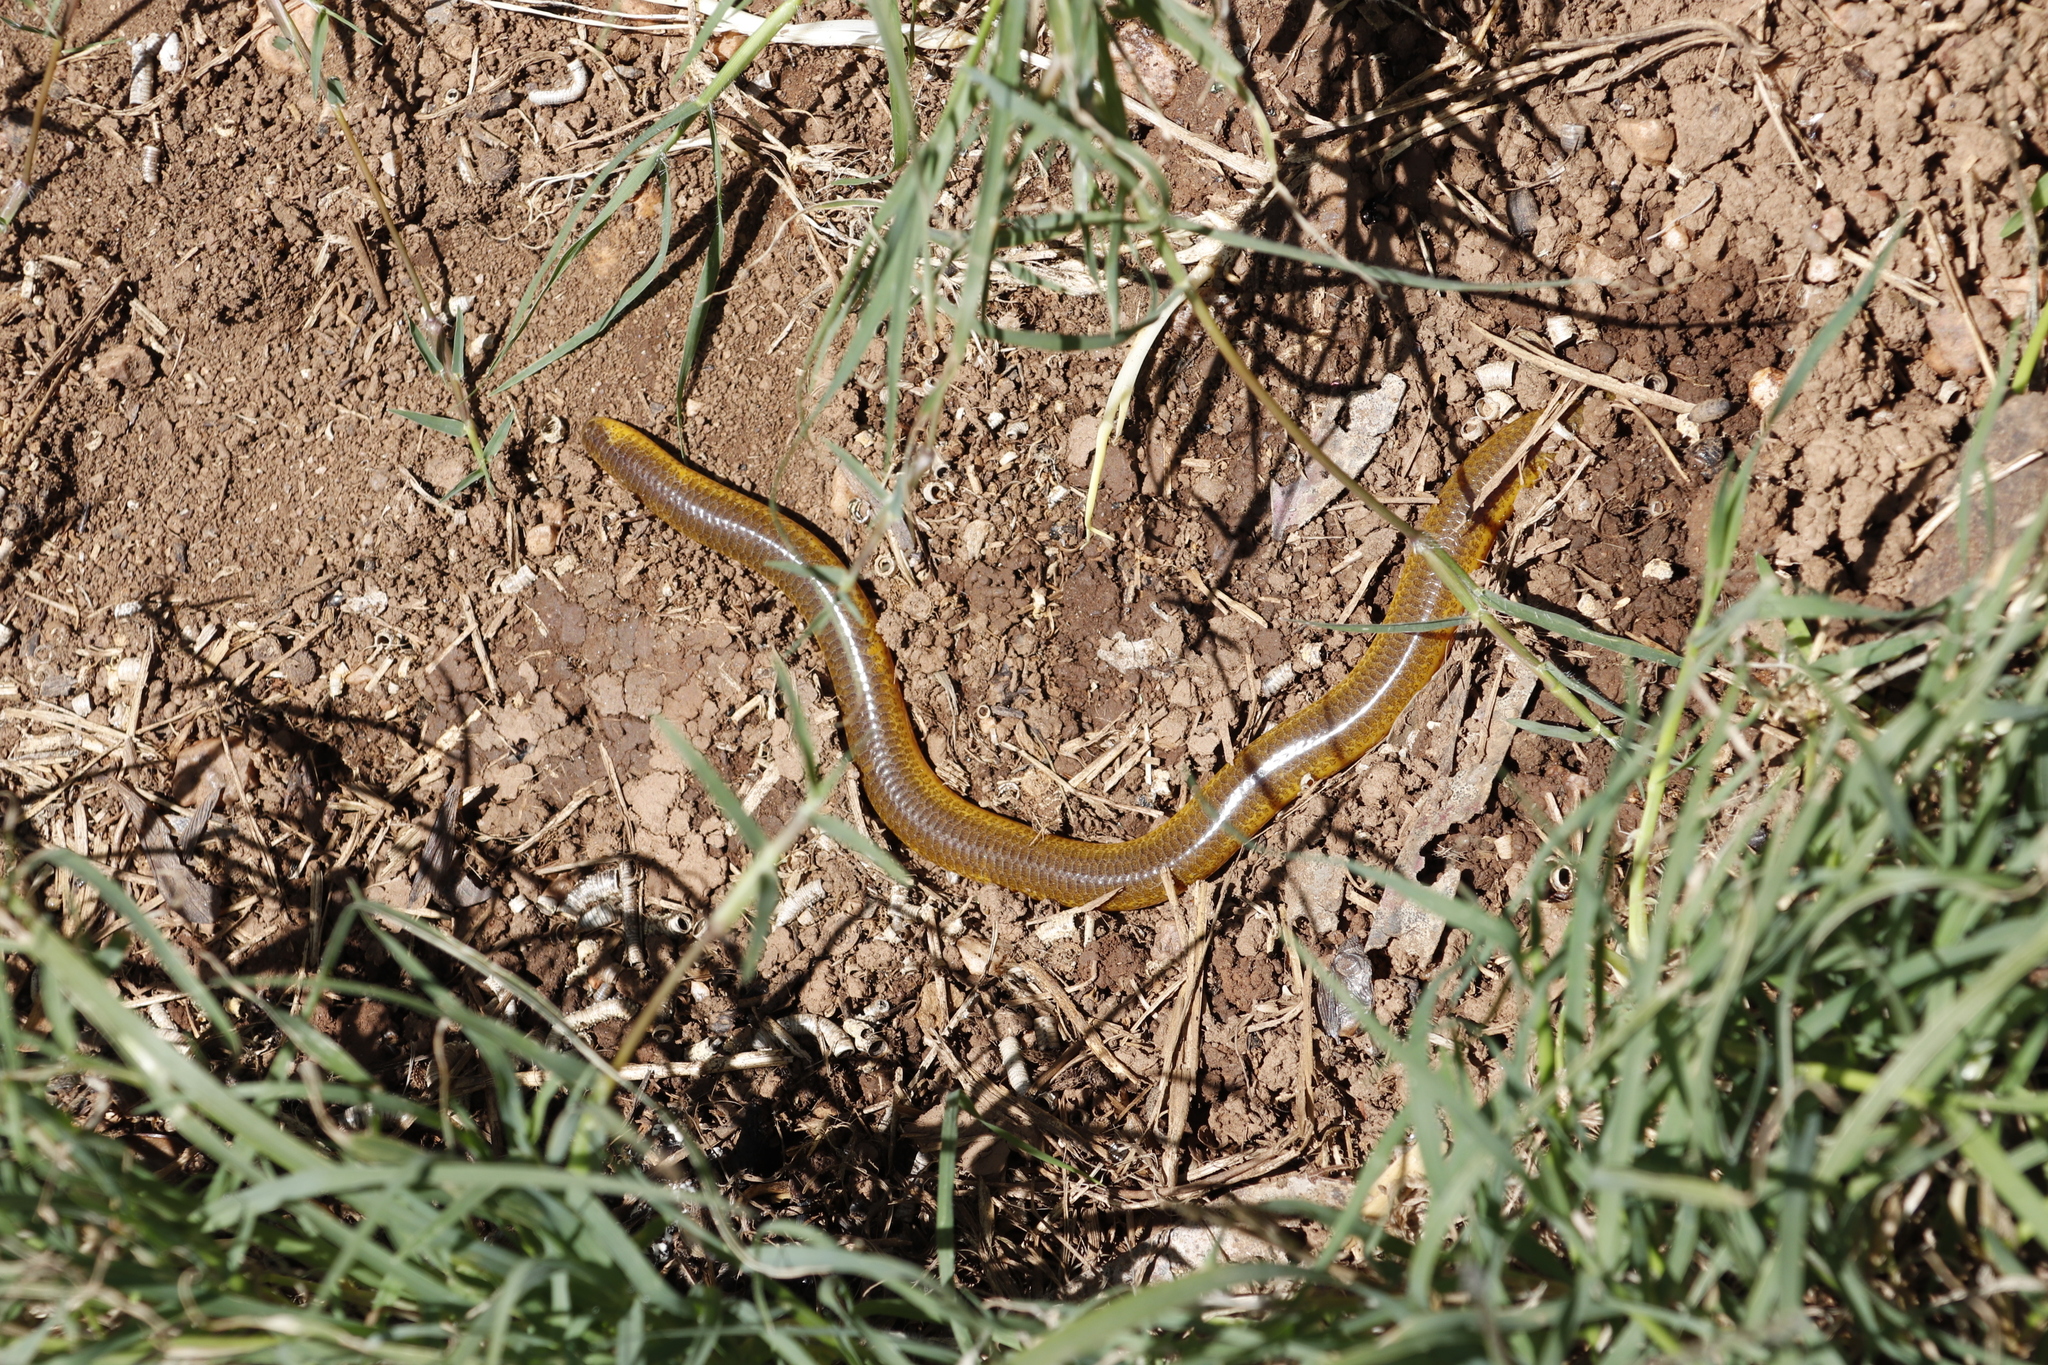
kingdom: Animalia
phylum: Chordata
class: Squamata
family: Scincidae
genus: Acontias
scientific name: Acontias meleagris
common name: Cape legless skink
